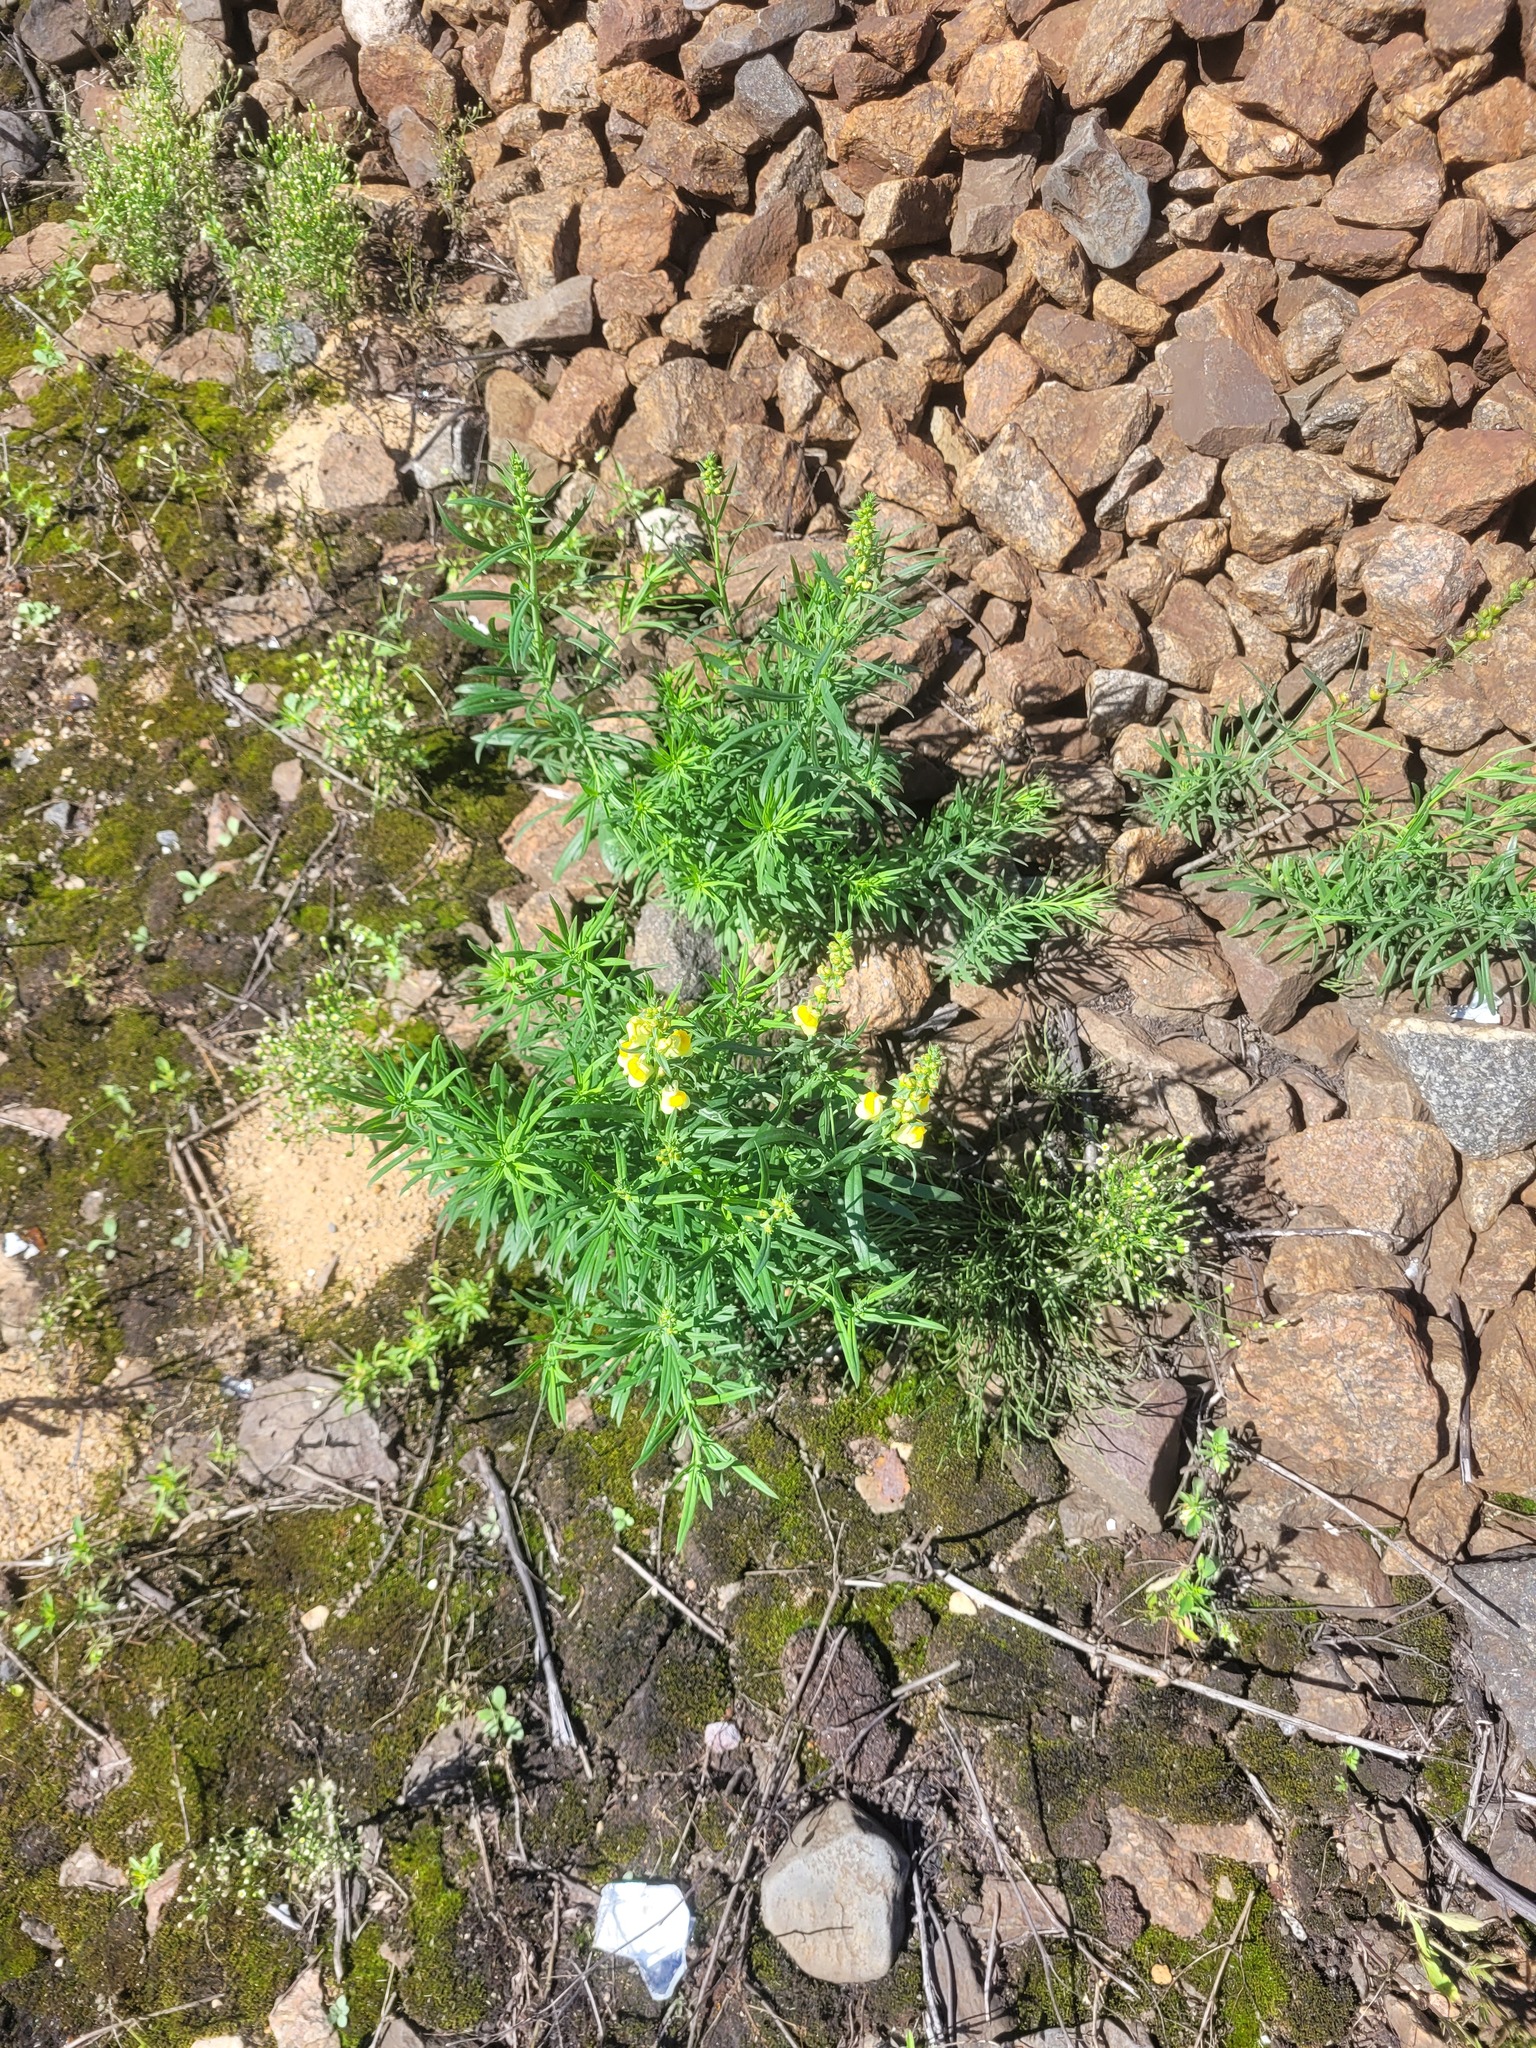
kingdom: Plantae
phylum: Tracheophyta
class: Magnoliopsida
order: Lamiales
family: Plantaginaceae
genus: Linaria
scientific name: Linaria vulgaris
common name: Butter and eggs
